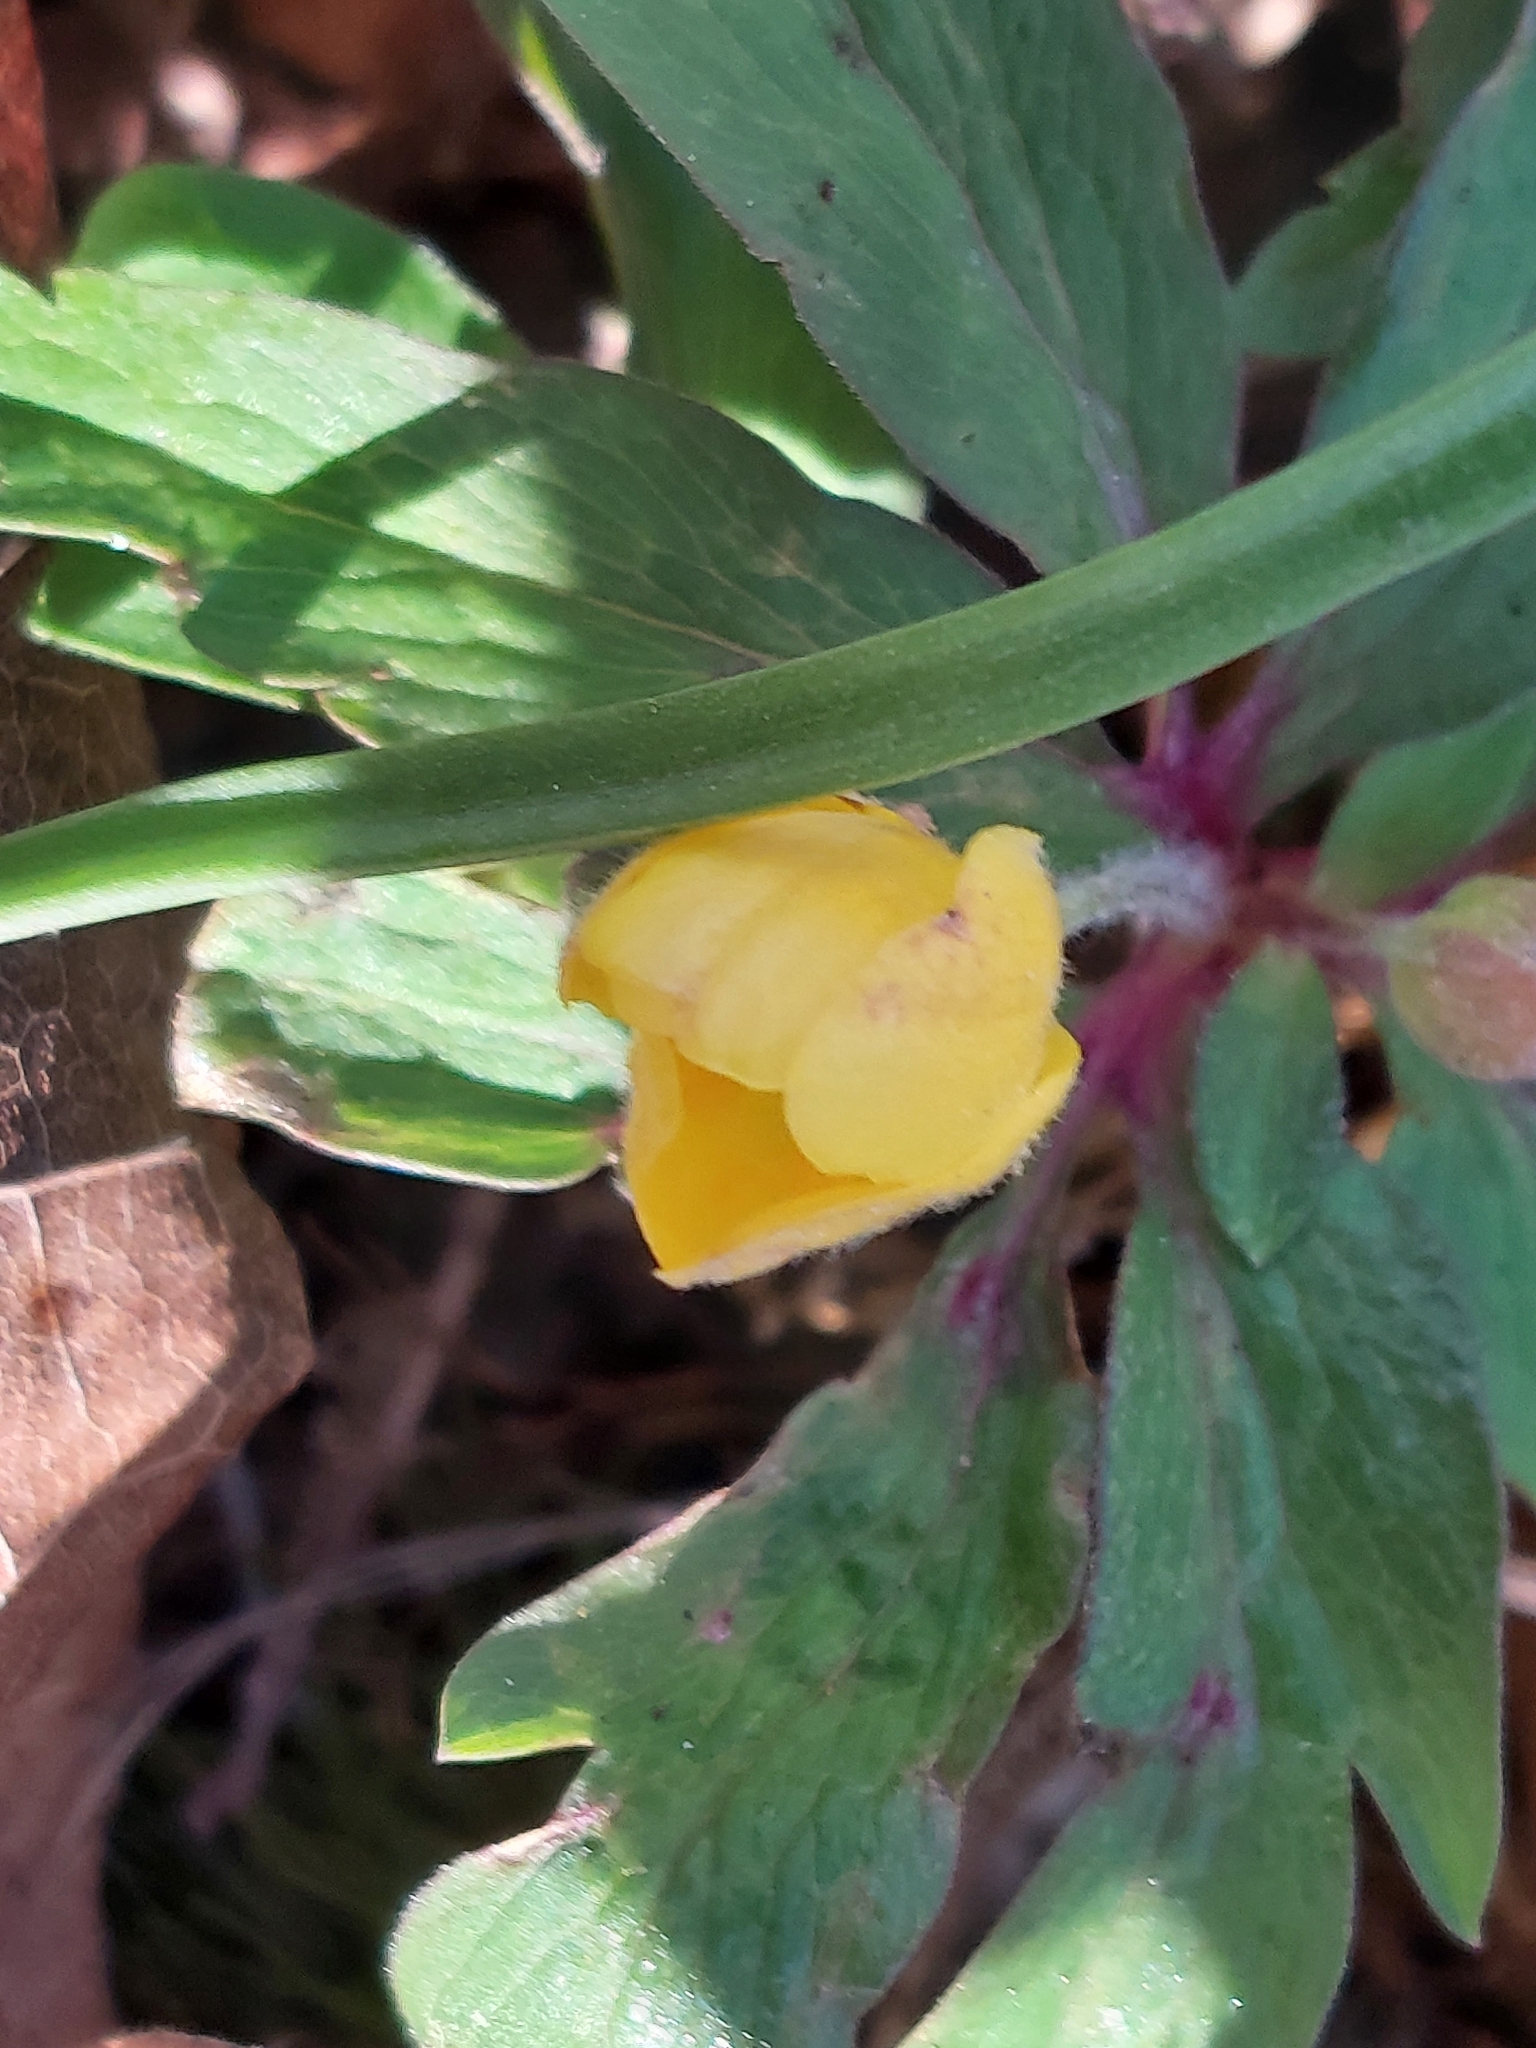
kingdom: Plantae
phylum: Tracheophyta
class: Magnoliopsida
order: Ranunculales
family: Ranunculaceae
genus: Anemone
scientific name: Anemone ranunculoides
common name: Yellow anemone
